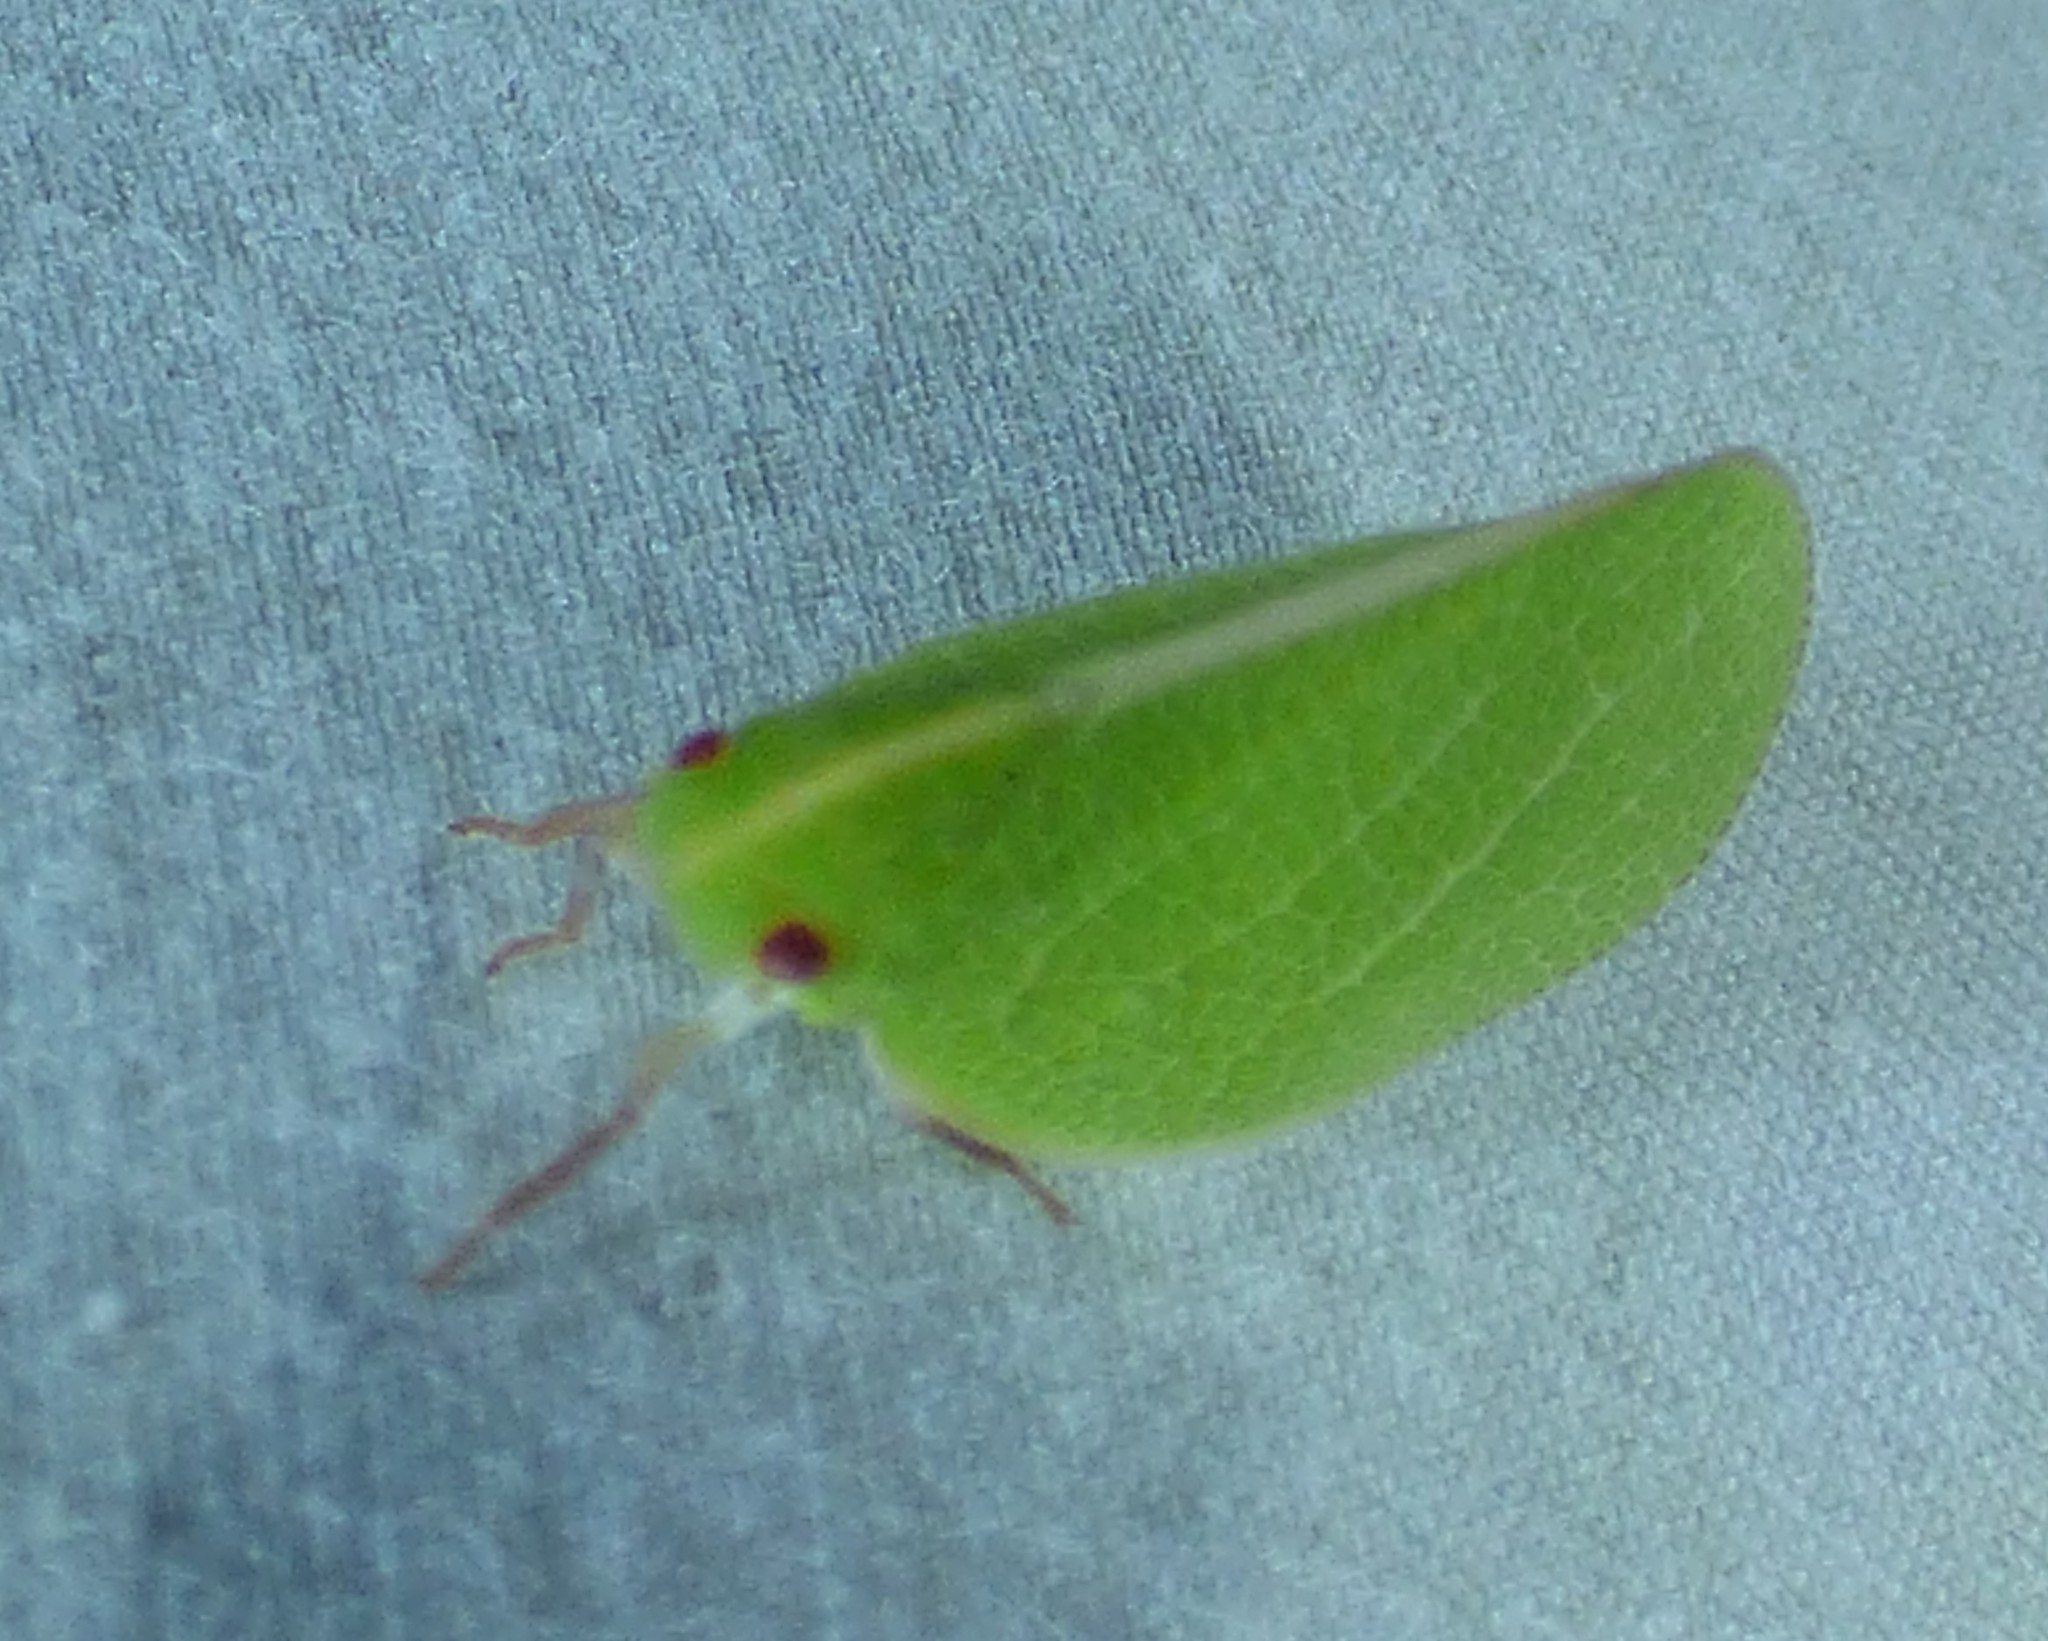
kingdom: Animalia
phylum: Arthropoda
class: Insecta
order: Hemiptera
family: Acanaloniidae
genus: Acanalonia
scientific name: Acanalonia servillei
